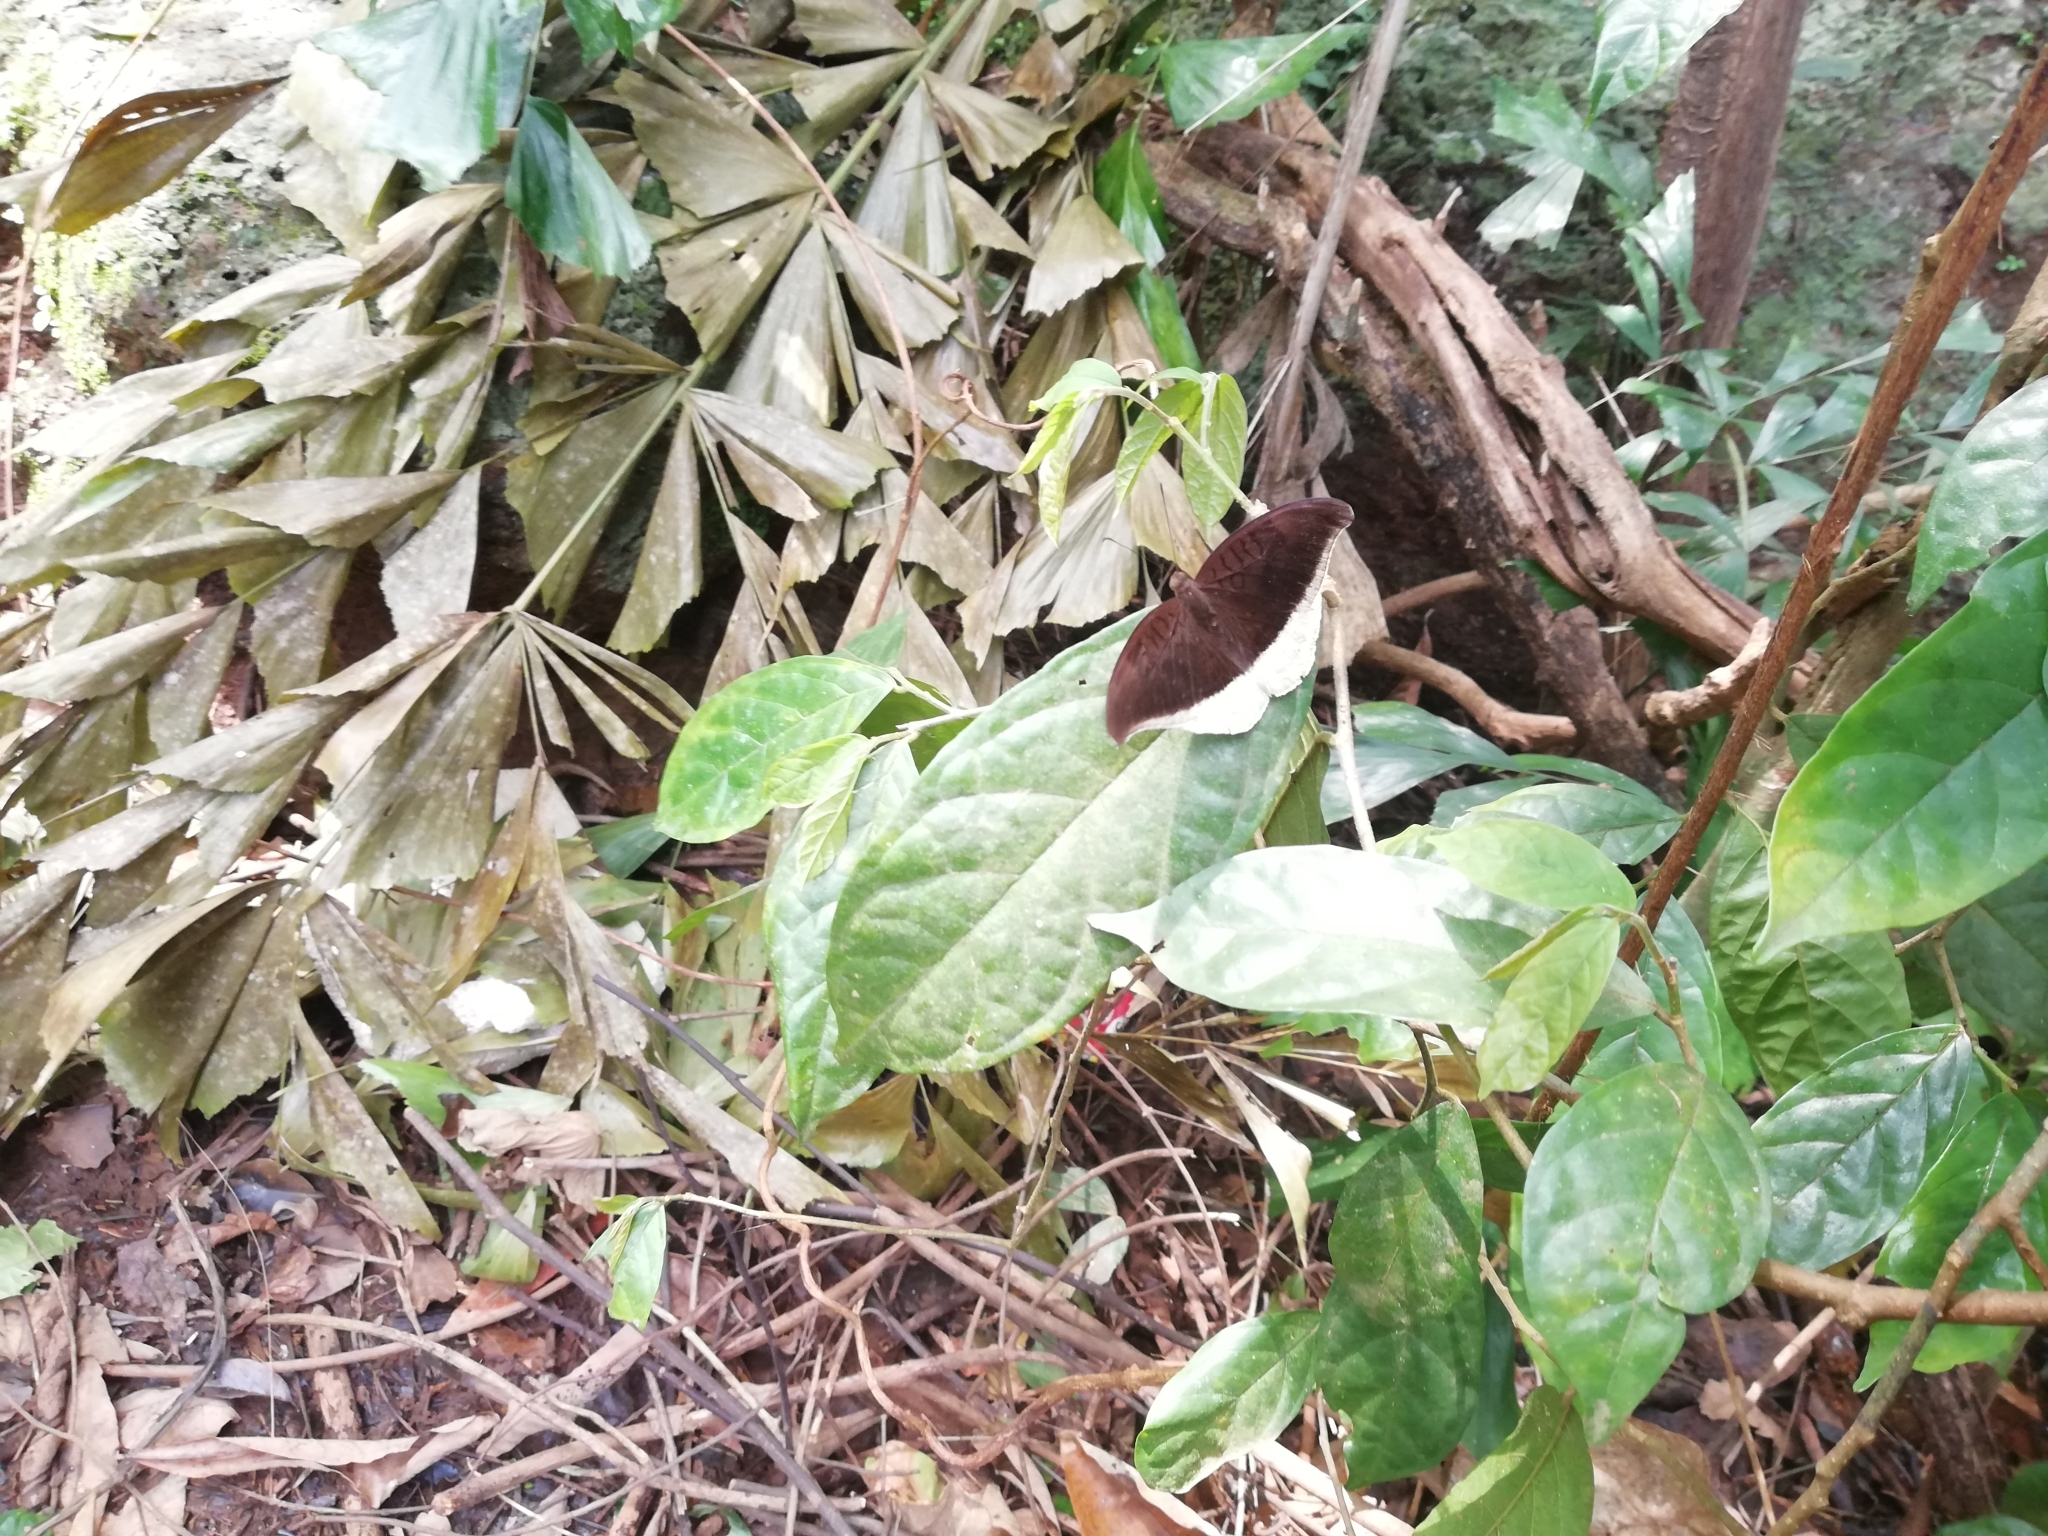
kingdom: Animalia
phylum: Arthropoda
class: Insecta
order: Lepidoptera
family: Nymphalidae
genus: Tanaecia
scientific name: Tanaecia lepidea
